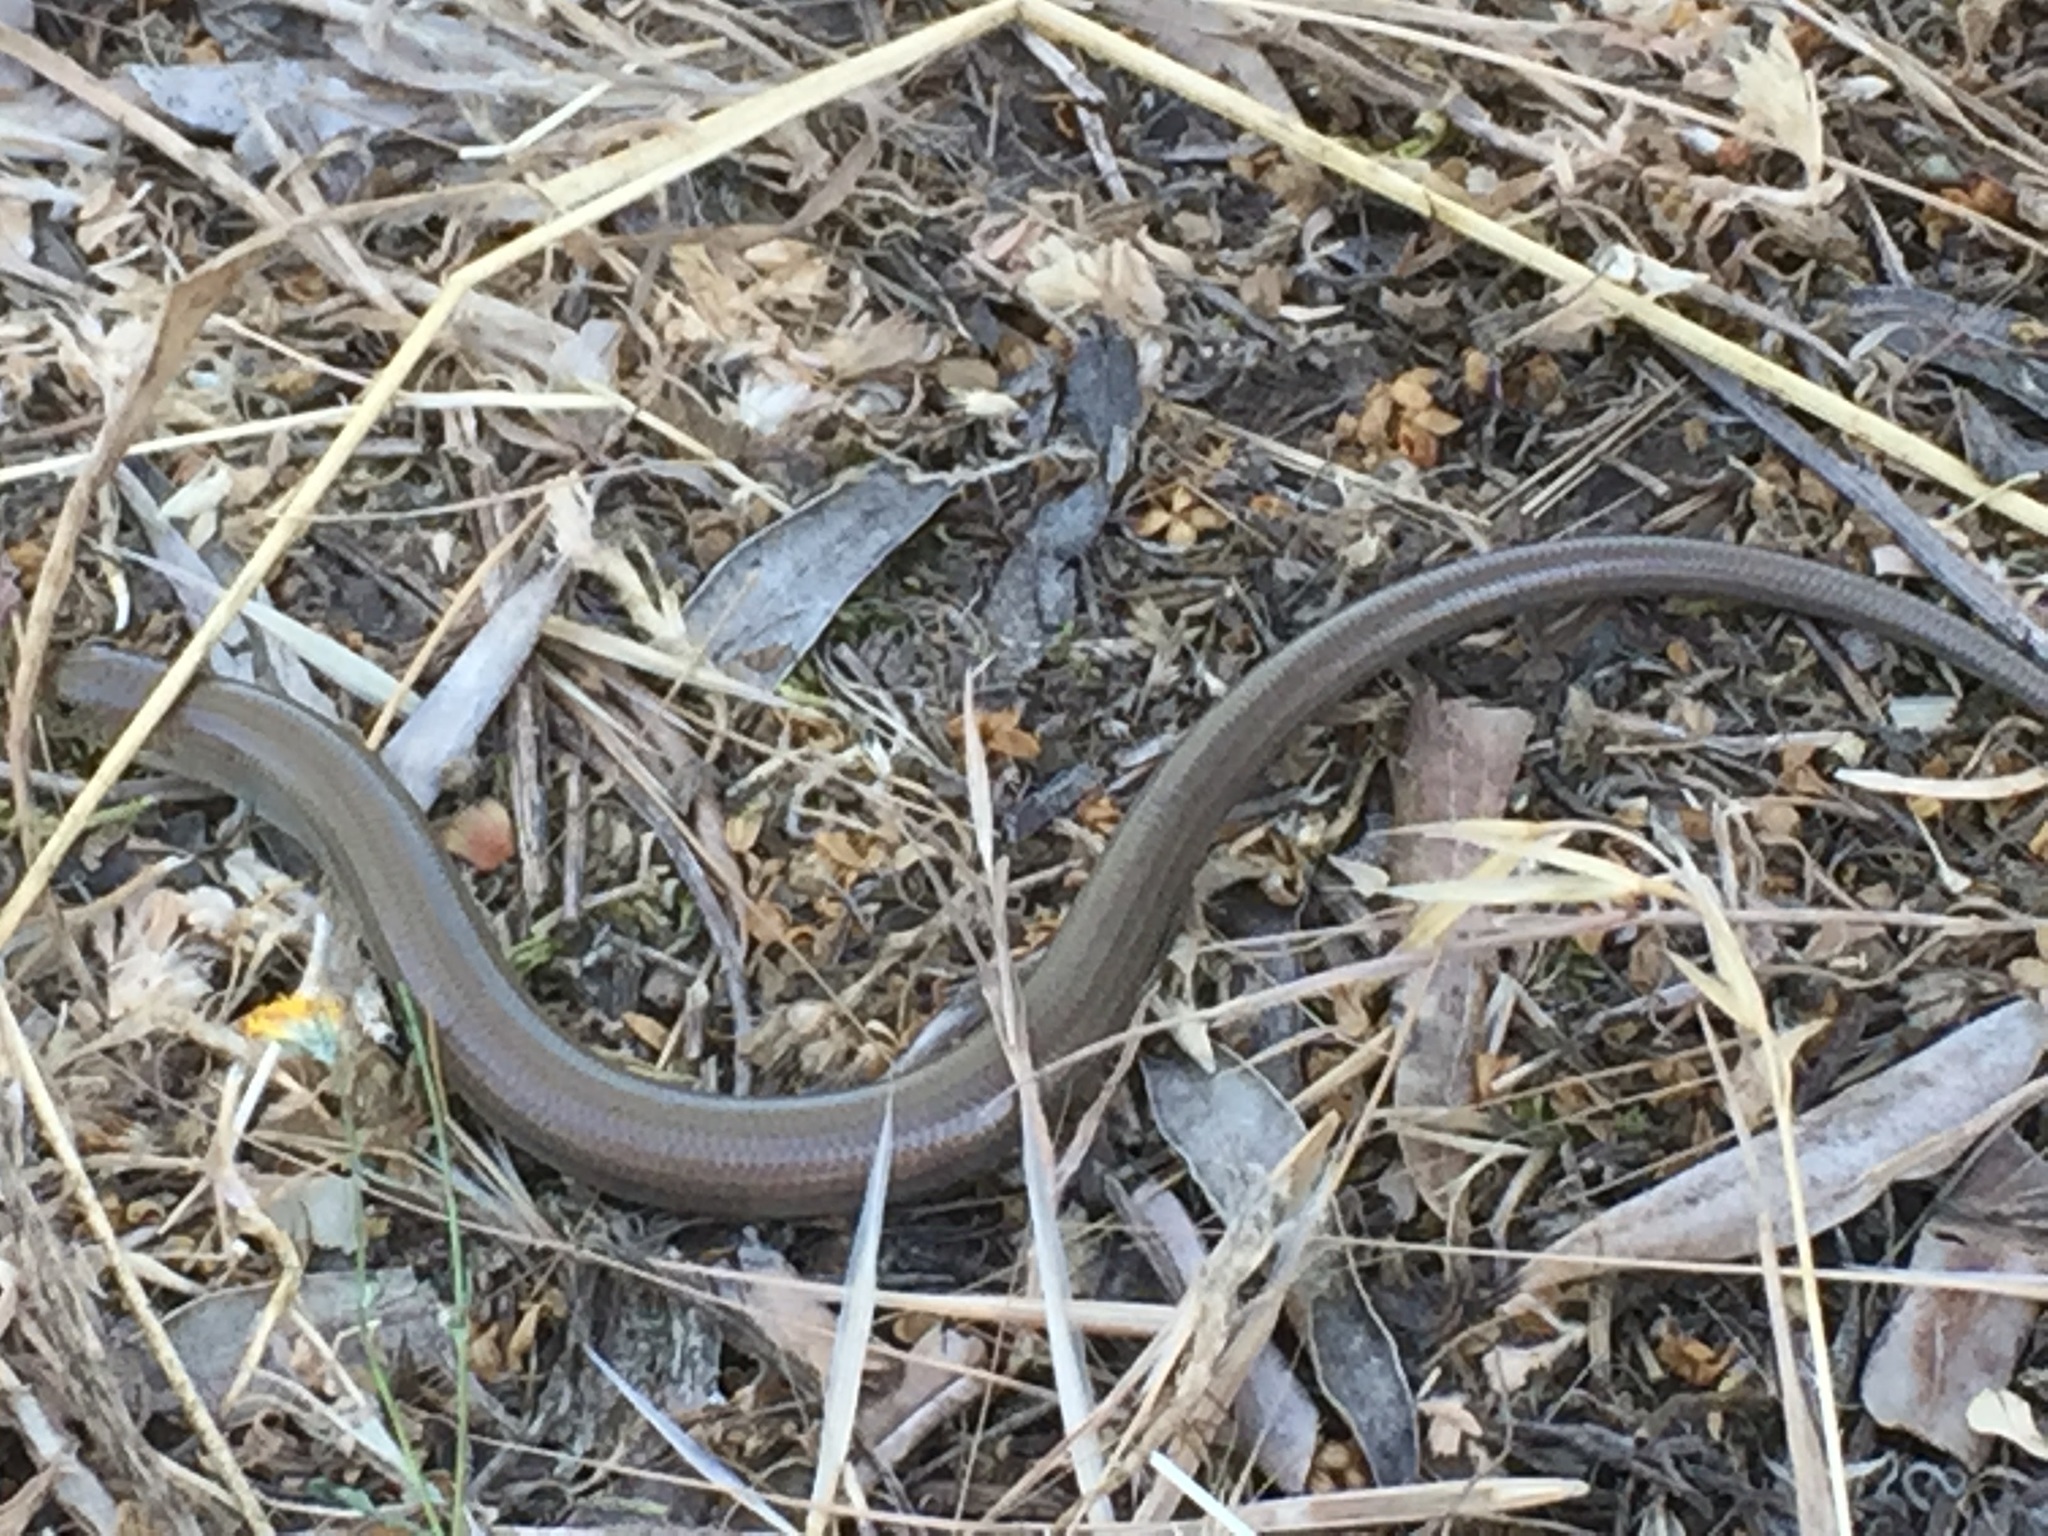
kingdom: Animalia
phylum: Chordata
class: Squamata
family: Scincidae
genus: Chalcides
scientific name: Chalcides striatus
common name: Western (or iberian) three-toed skink
